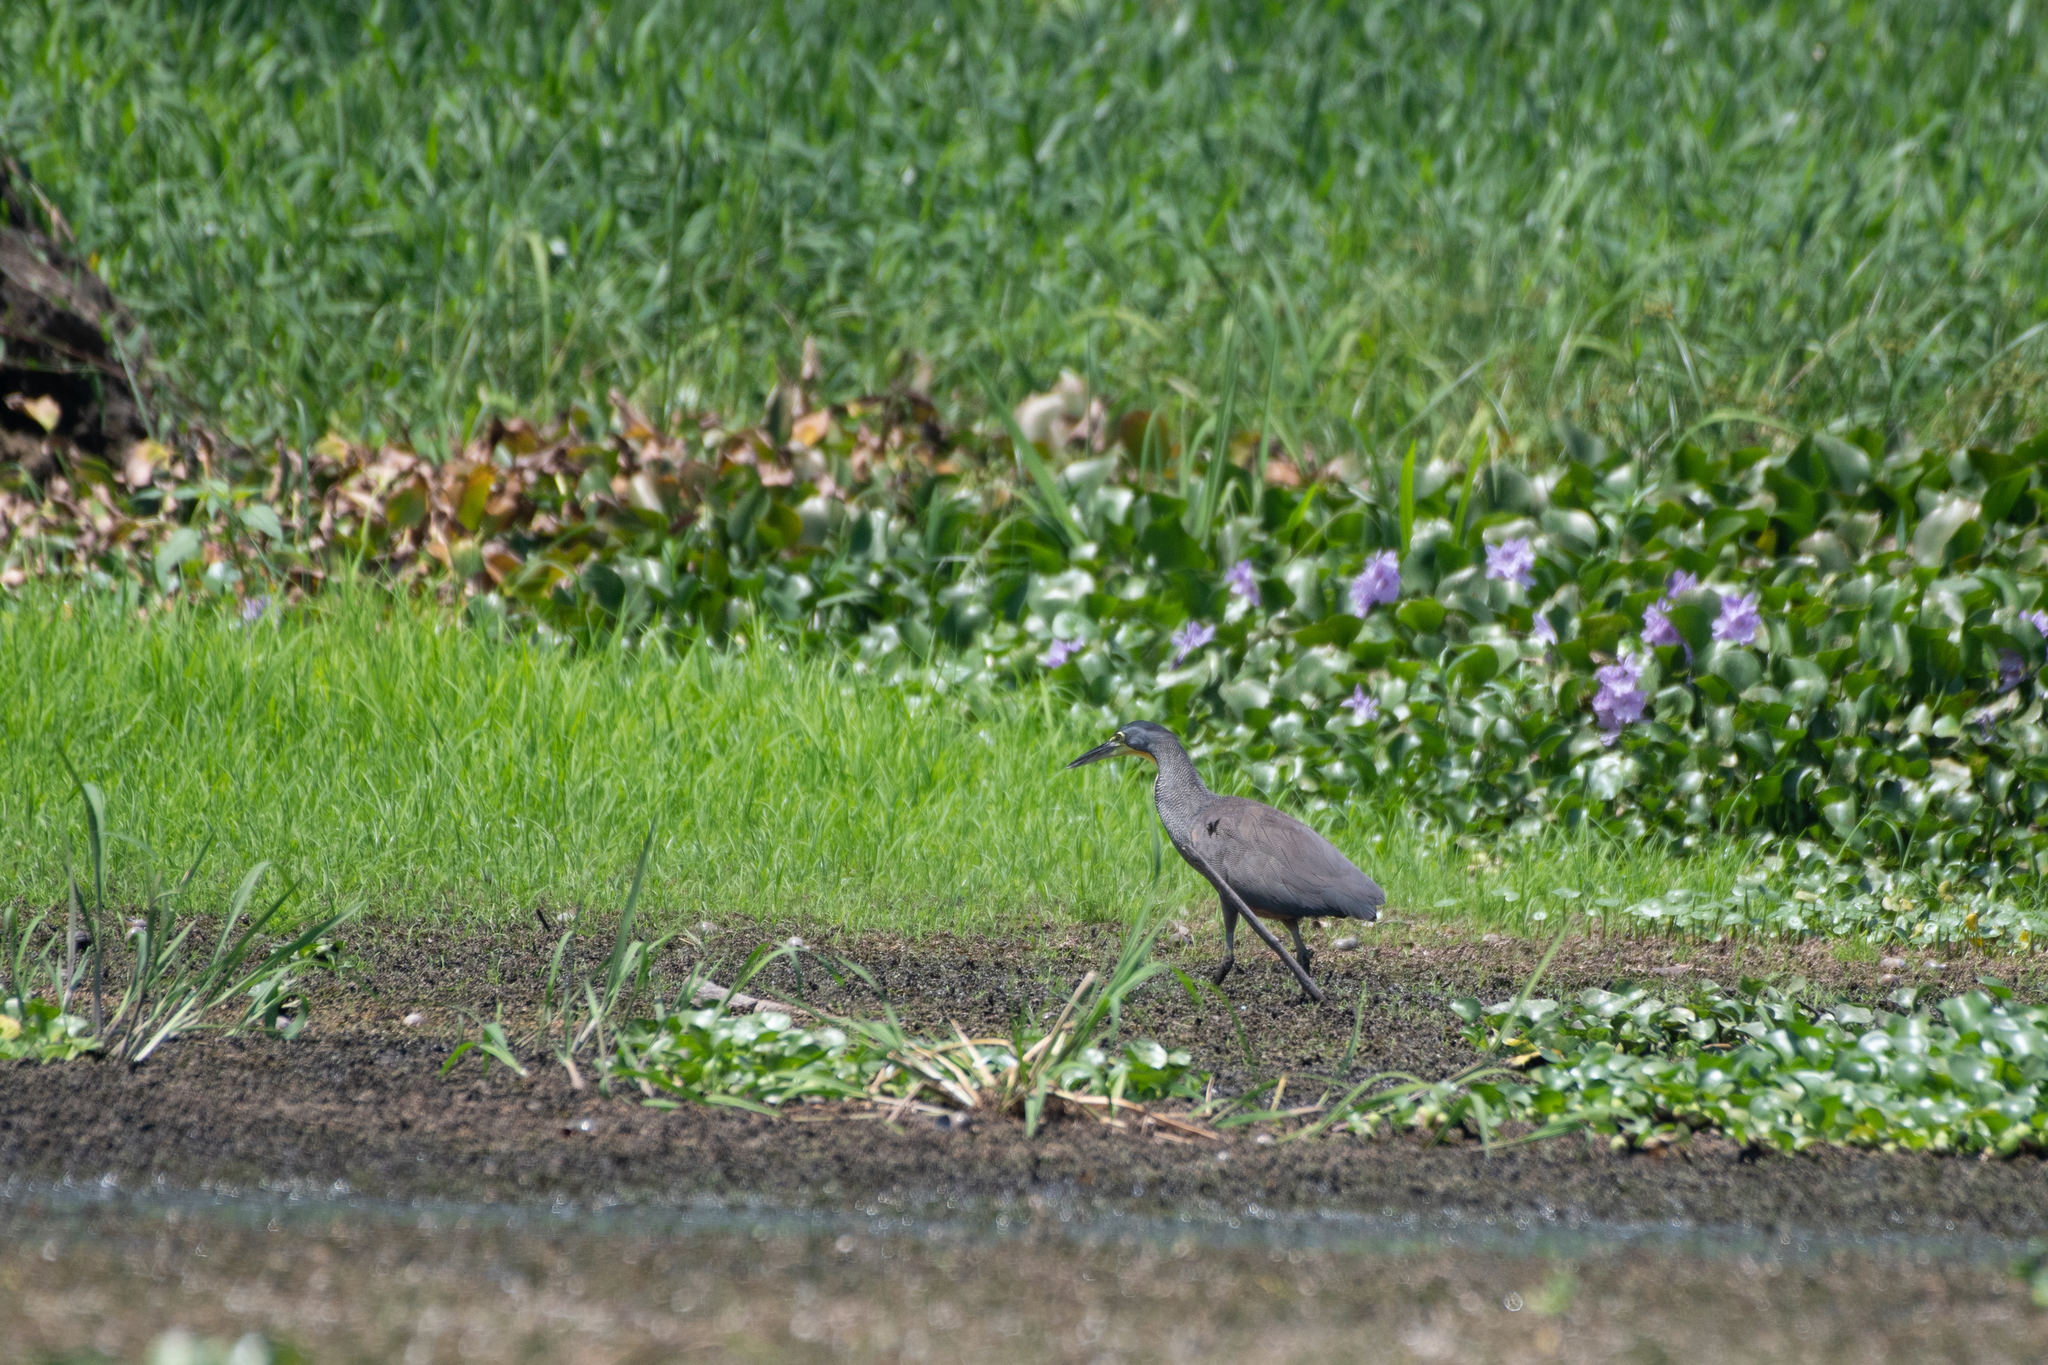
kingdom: Animalia
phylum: Chordata
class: Aves
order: Pelecaniformes
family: Ardeidae
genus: Tigrisoma
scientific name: Tigrisoma mexicanum
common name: Bare-throated tiger-heron
